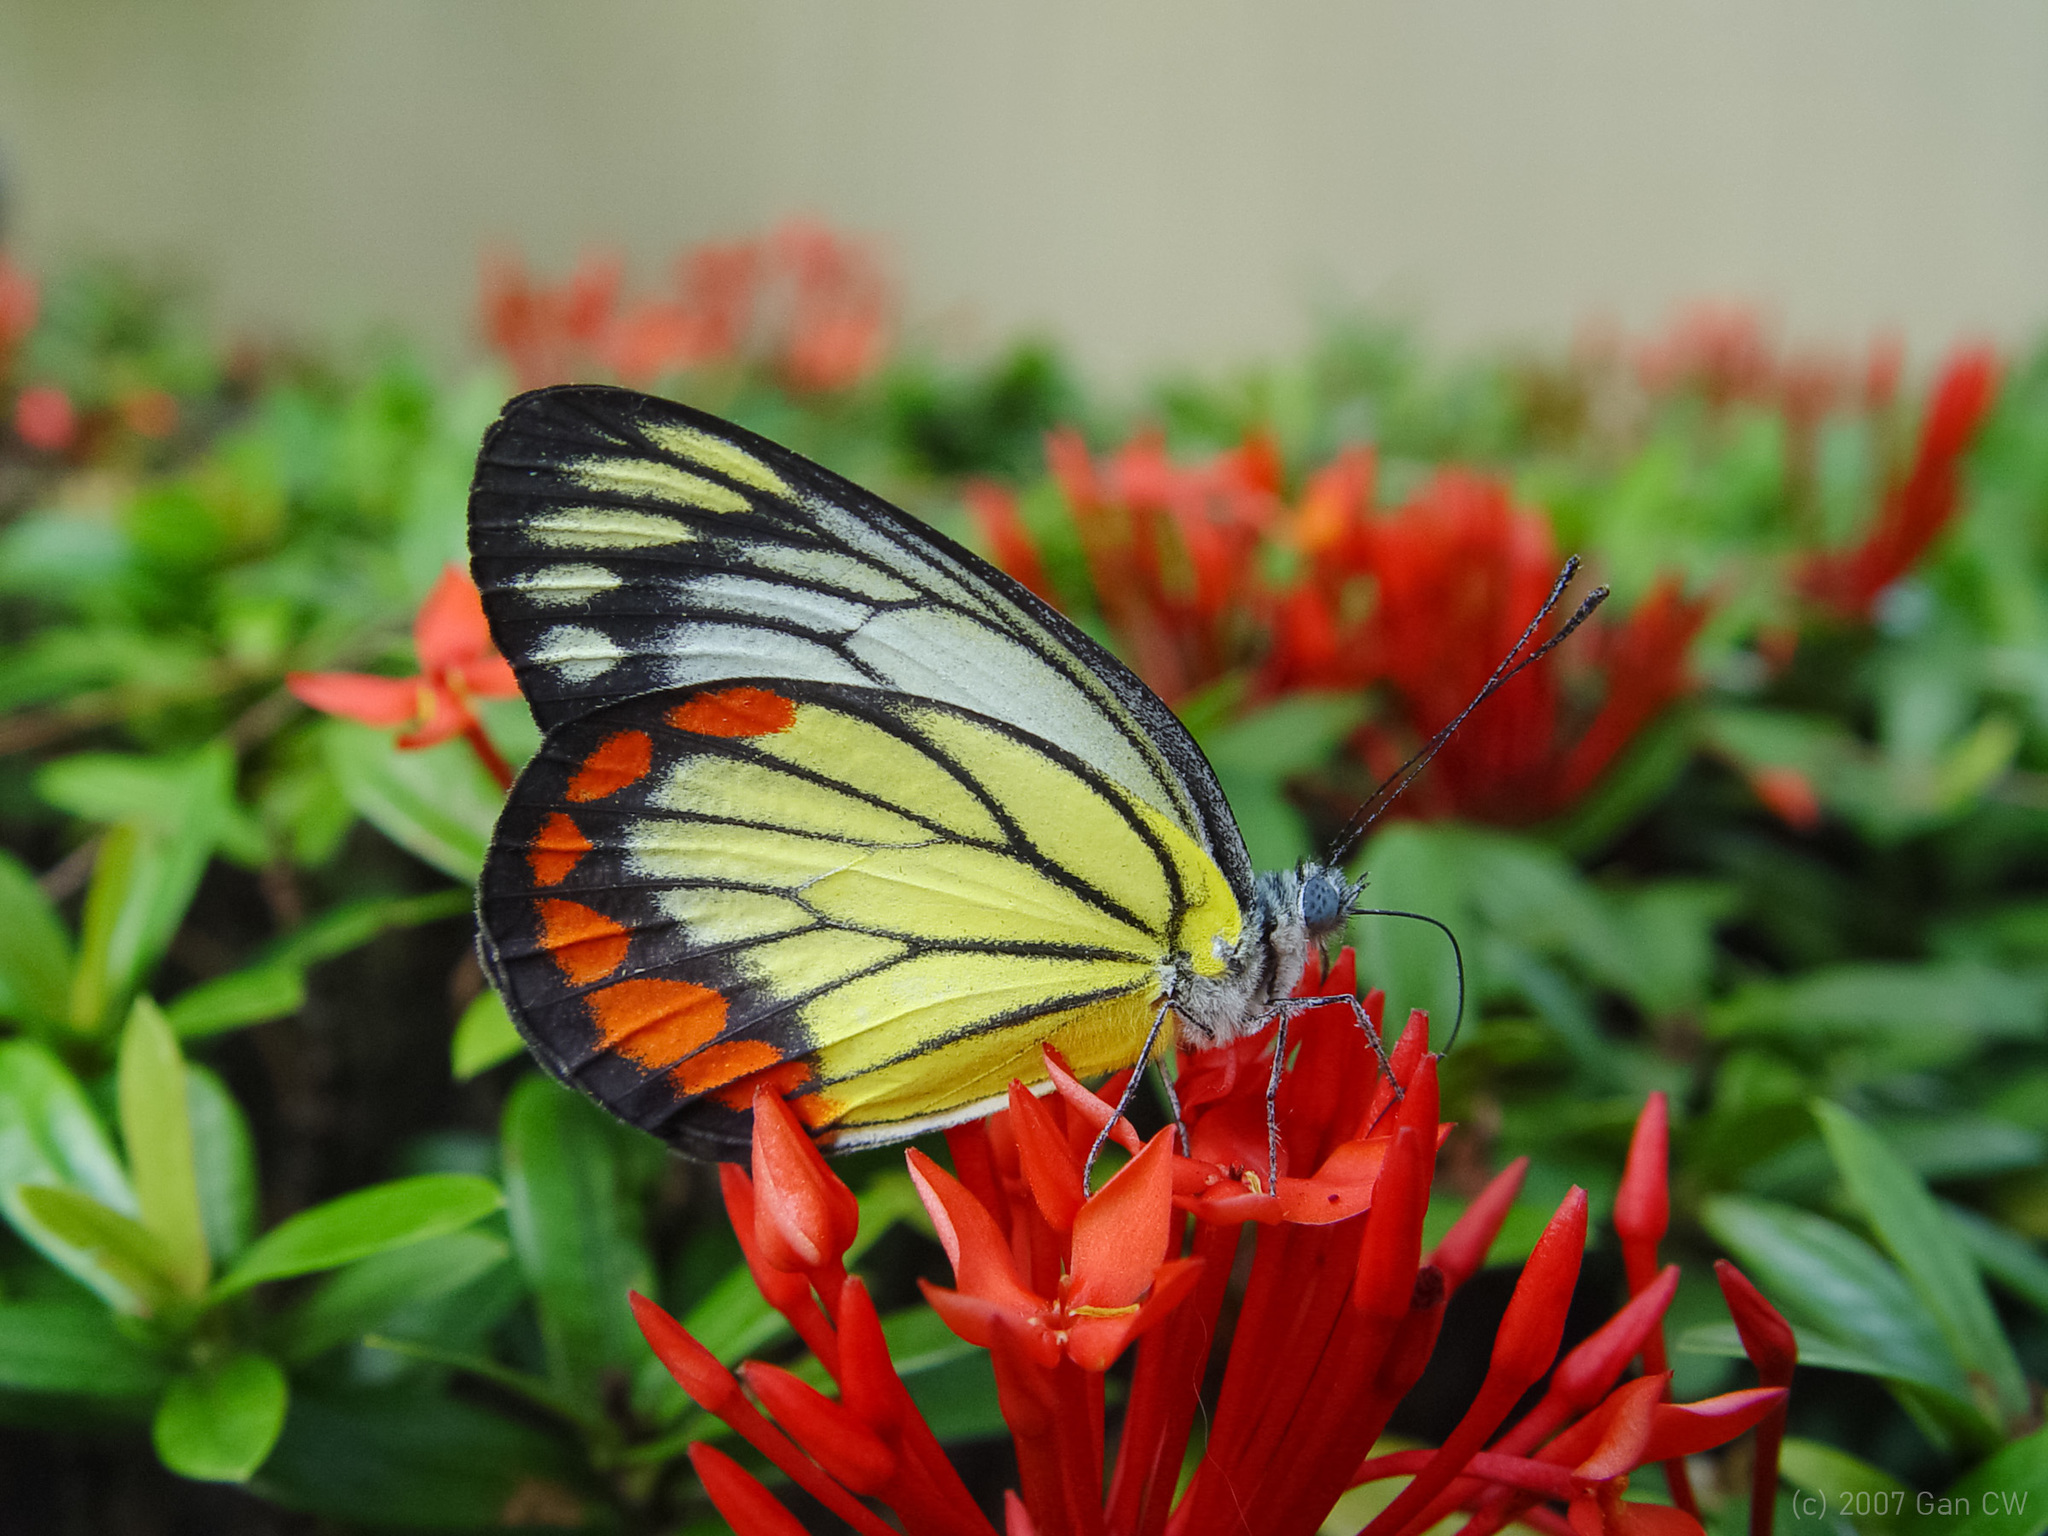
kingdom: Animalia
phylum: Arthropoda
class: Insecta
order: Lepidoptera
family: Pieridae
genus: Delias
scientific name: Delias hyparete
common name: Painted jezebel
